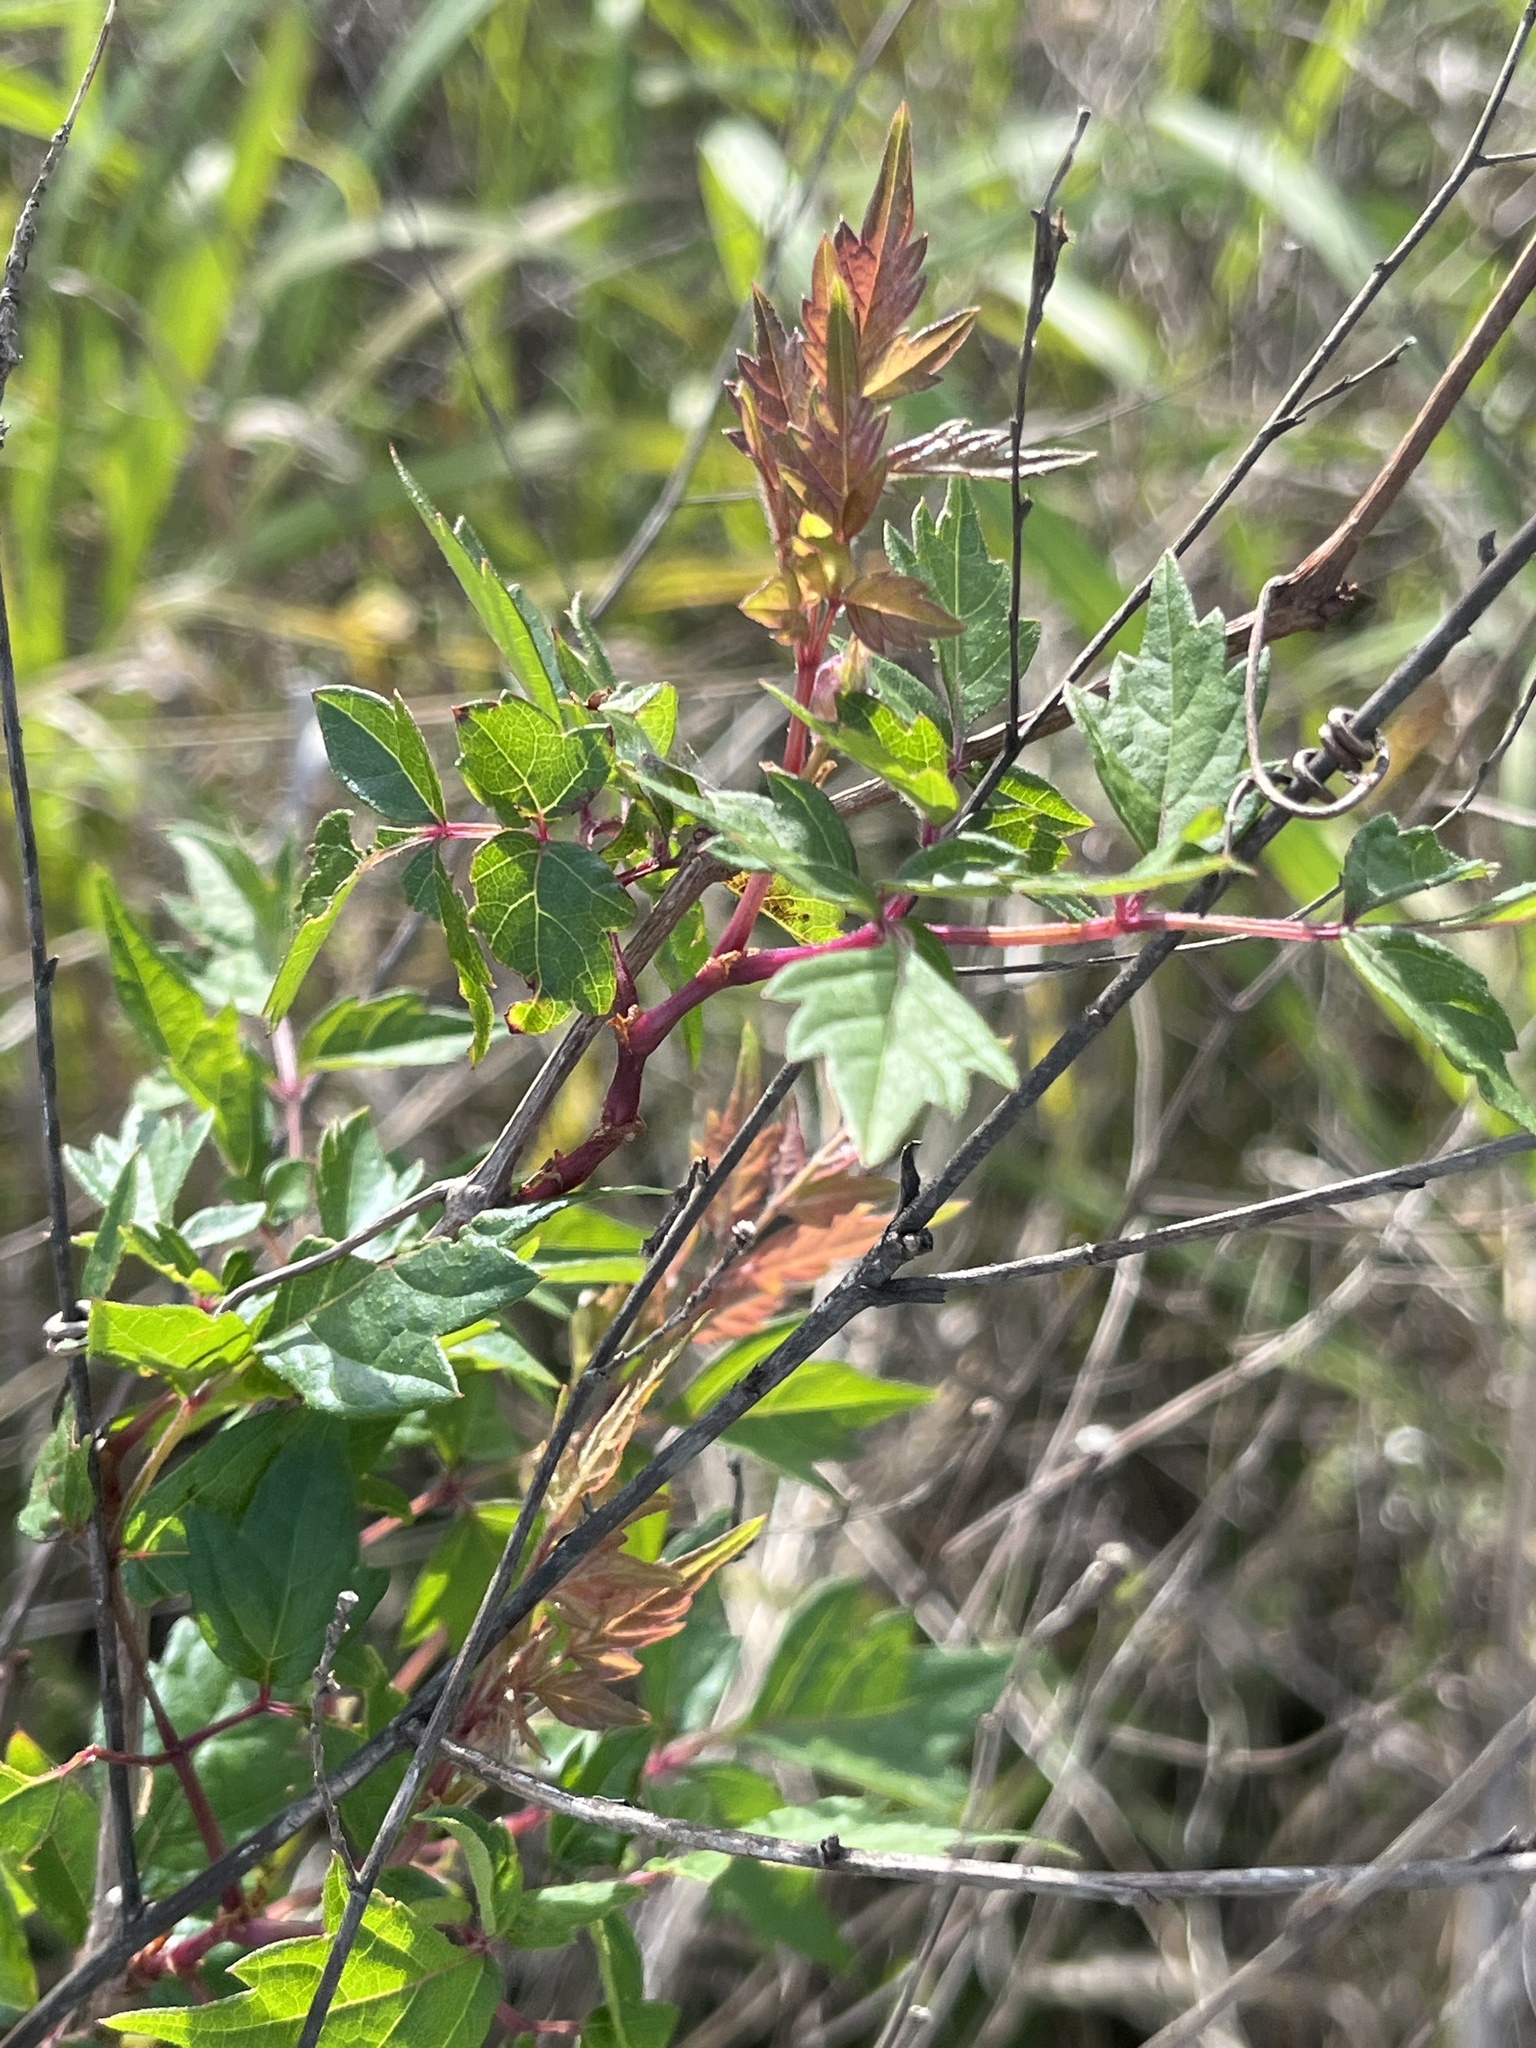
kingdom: Plantae
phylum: Tracheophyta
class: Magnoliopsida
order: Vitales
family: Vitaceae
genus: Nekemias
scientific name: Nekemias arborea
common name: Peppervine
